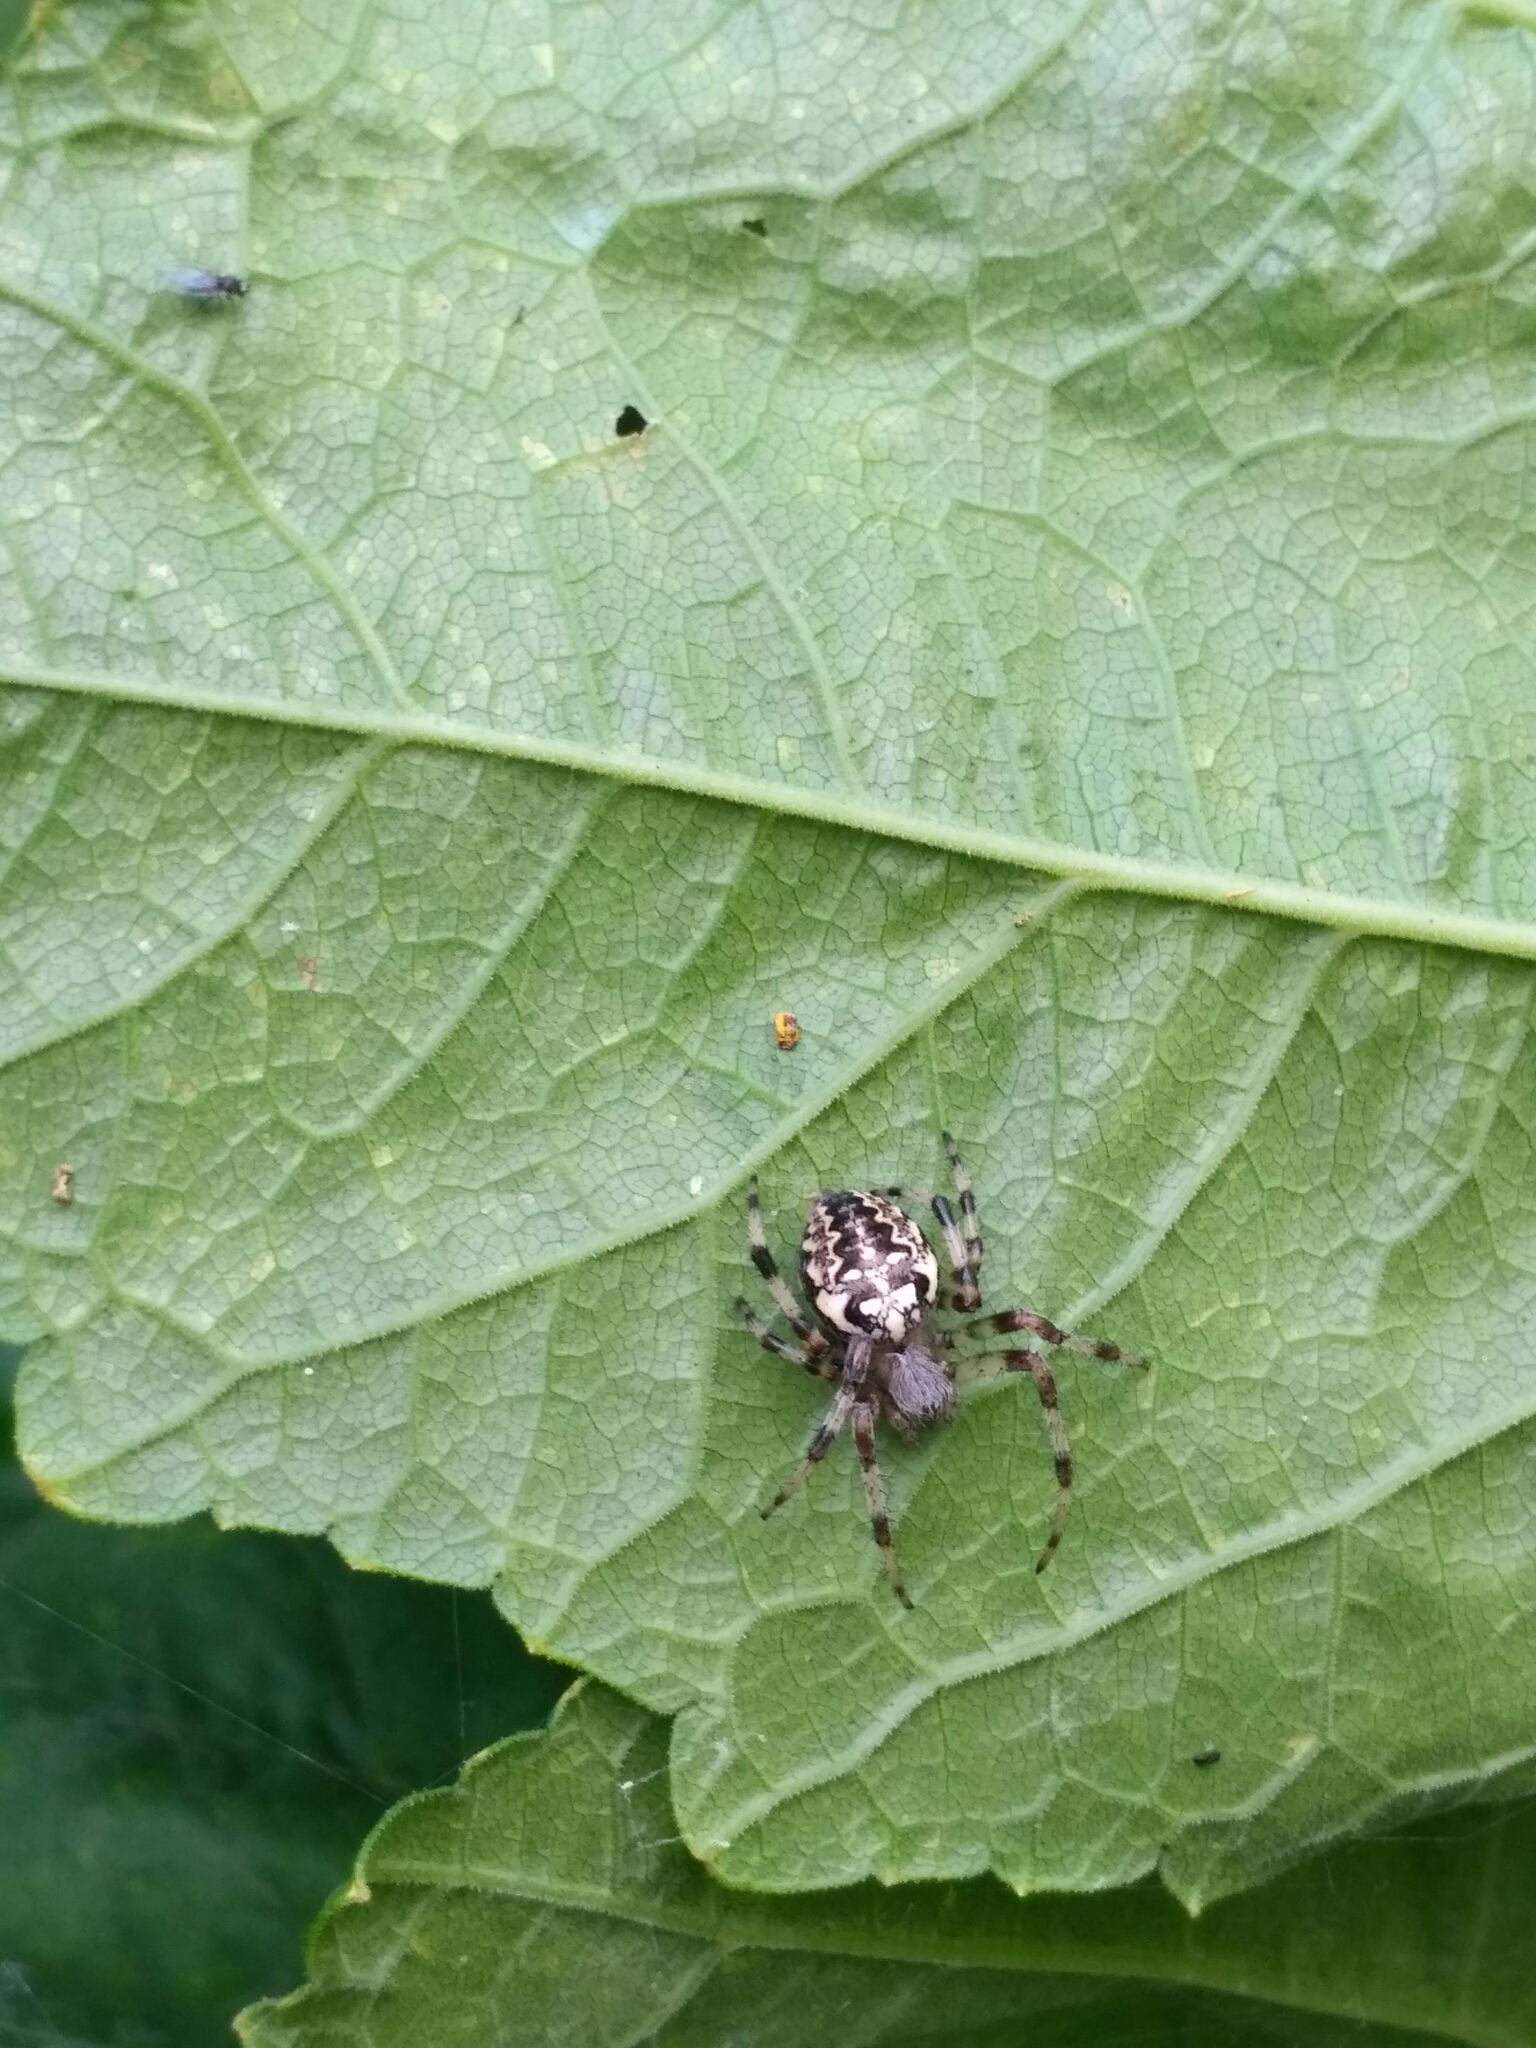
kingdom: Animalia
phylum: Arthropoda
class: Arachnida
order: Araneae
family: Araneidae
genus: Araneus
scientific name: Araneus marmoreus
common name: Marbled orbweaver
